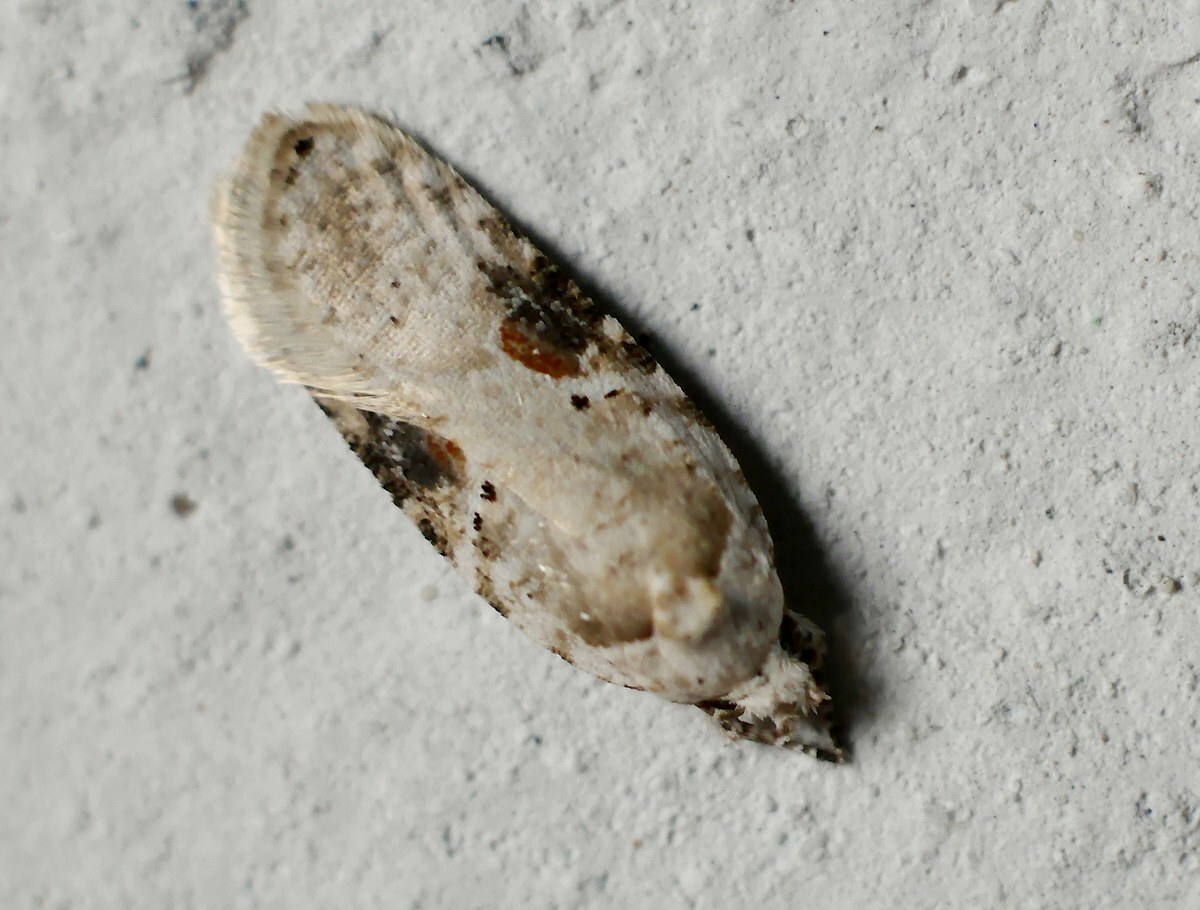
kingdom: Animalia
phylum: Arthropoda
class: Insecta
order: Lepidoptera
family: Depressariidae
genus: Agonopterix
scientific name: Agonopterix alstroemeriana
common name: Moth
